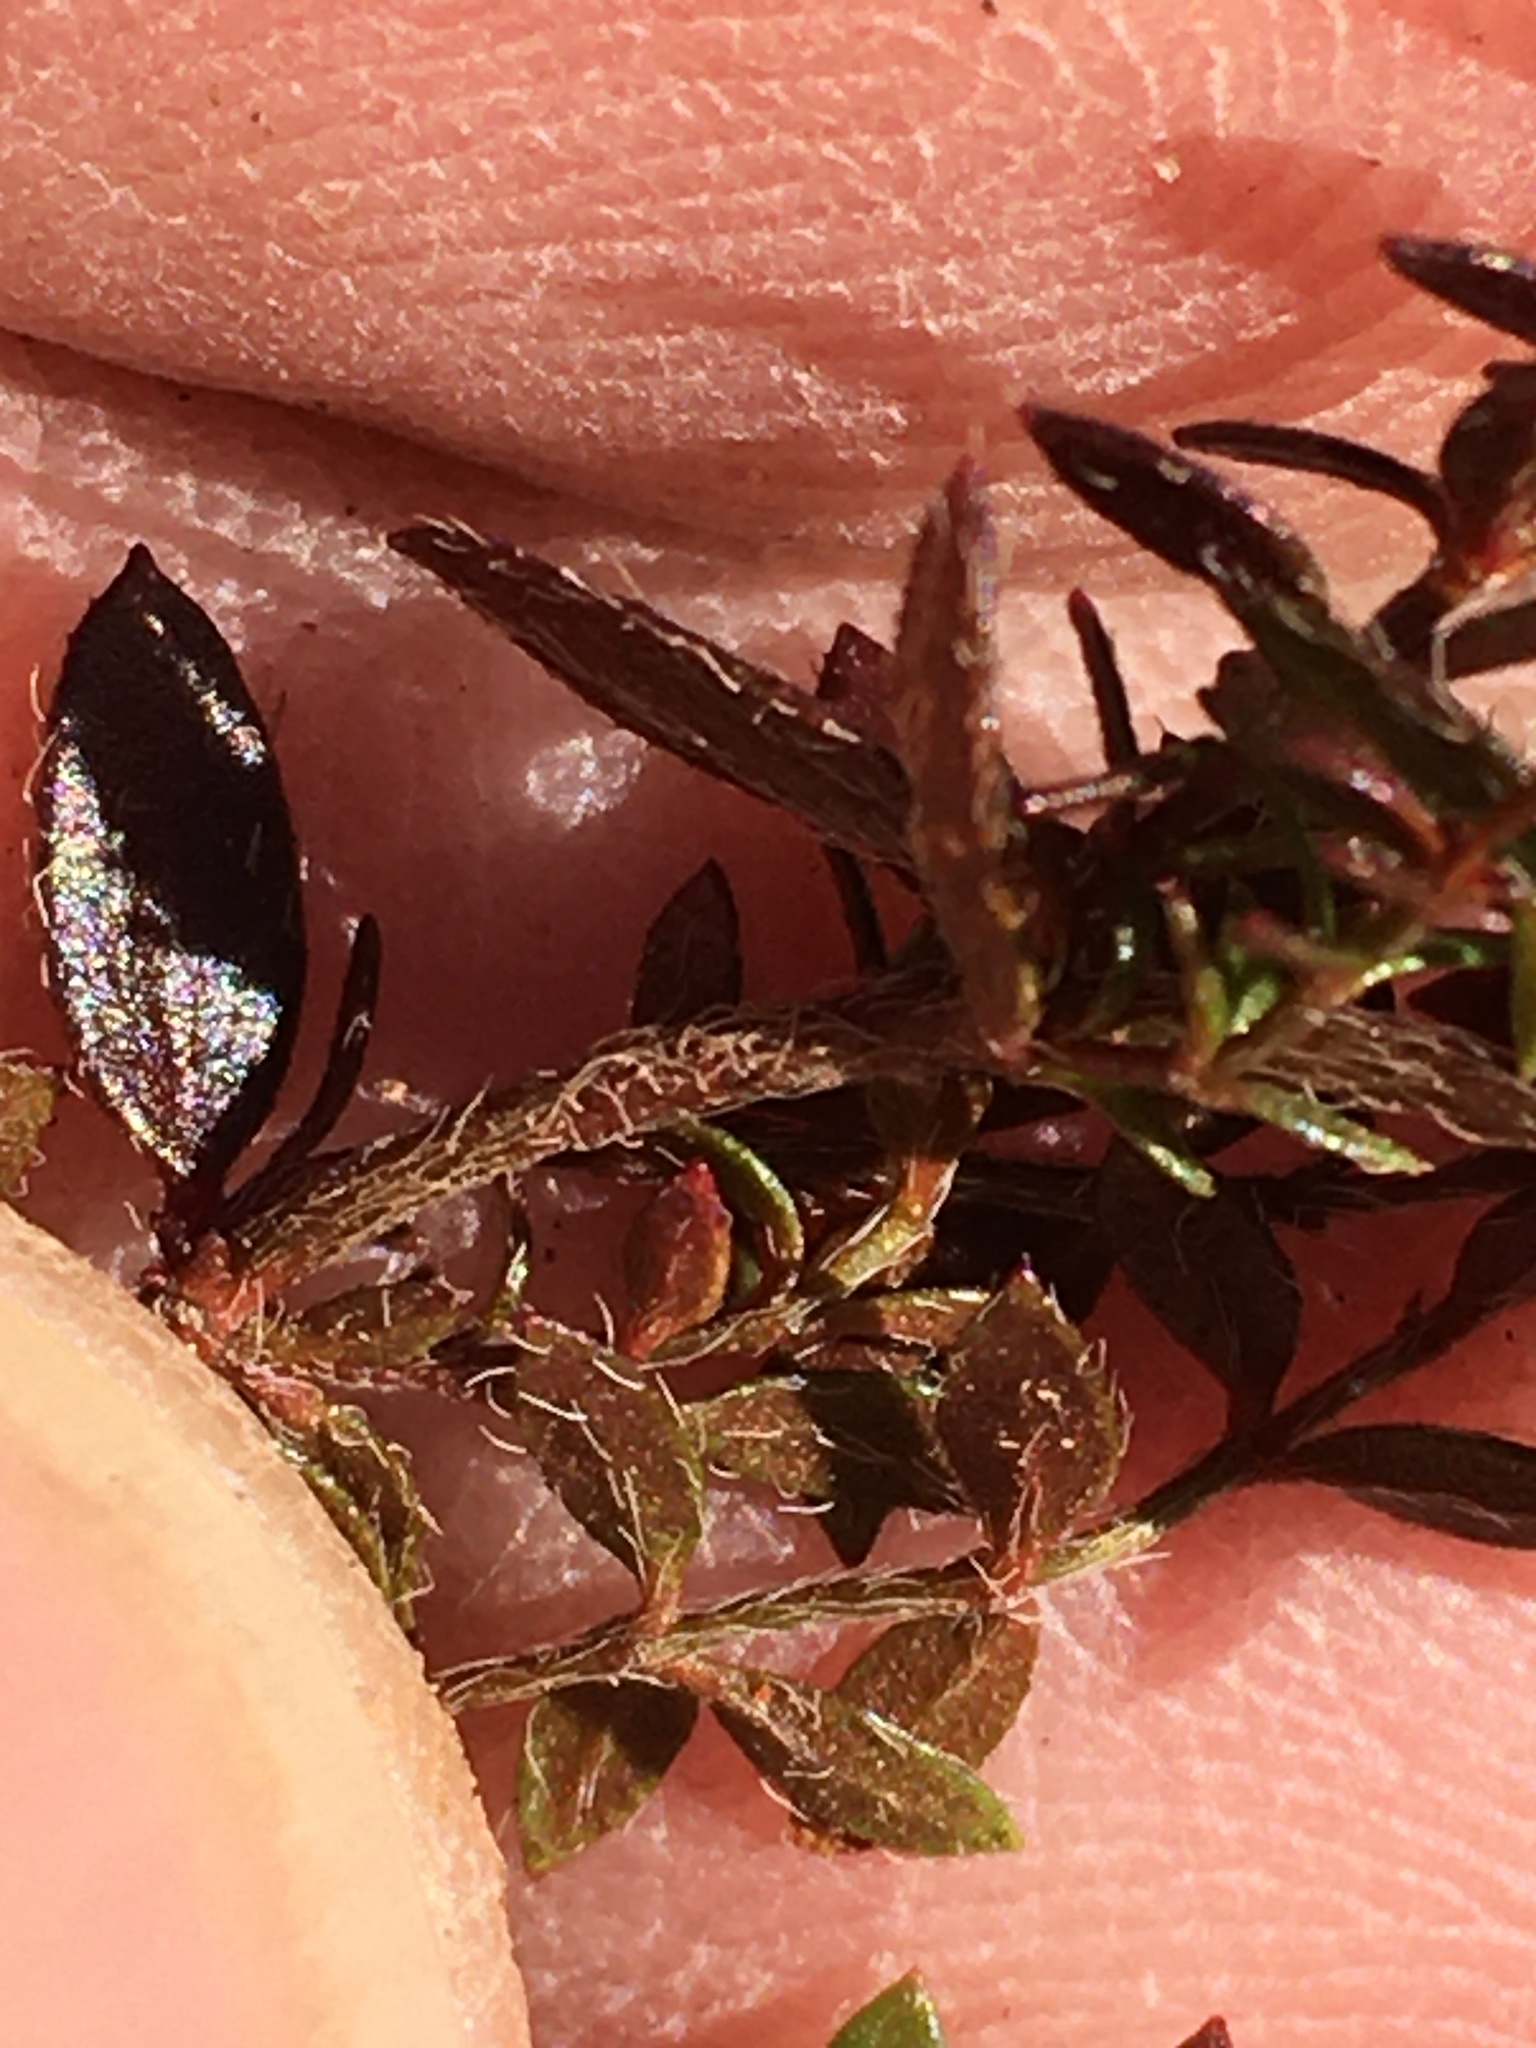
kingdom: Plantae
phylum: Tracheophyta
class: Magnoliopsida
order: Malvales
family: Cistaceae
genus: Lechea
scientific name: Lechea mucronata
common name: Hairy pinweed
